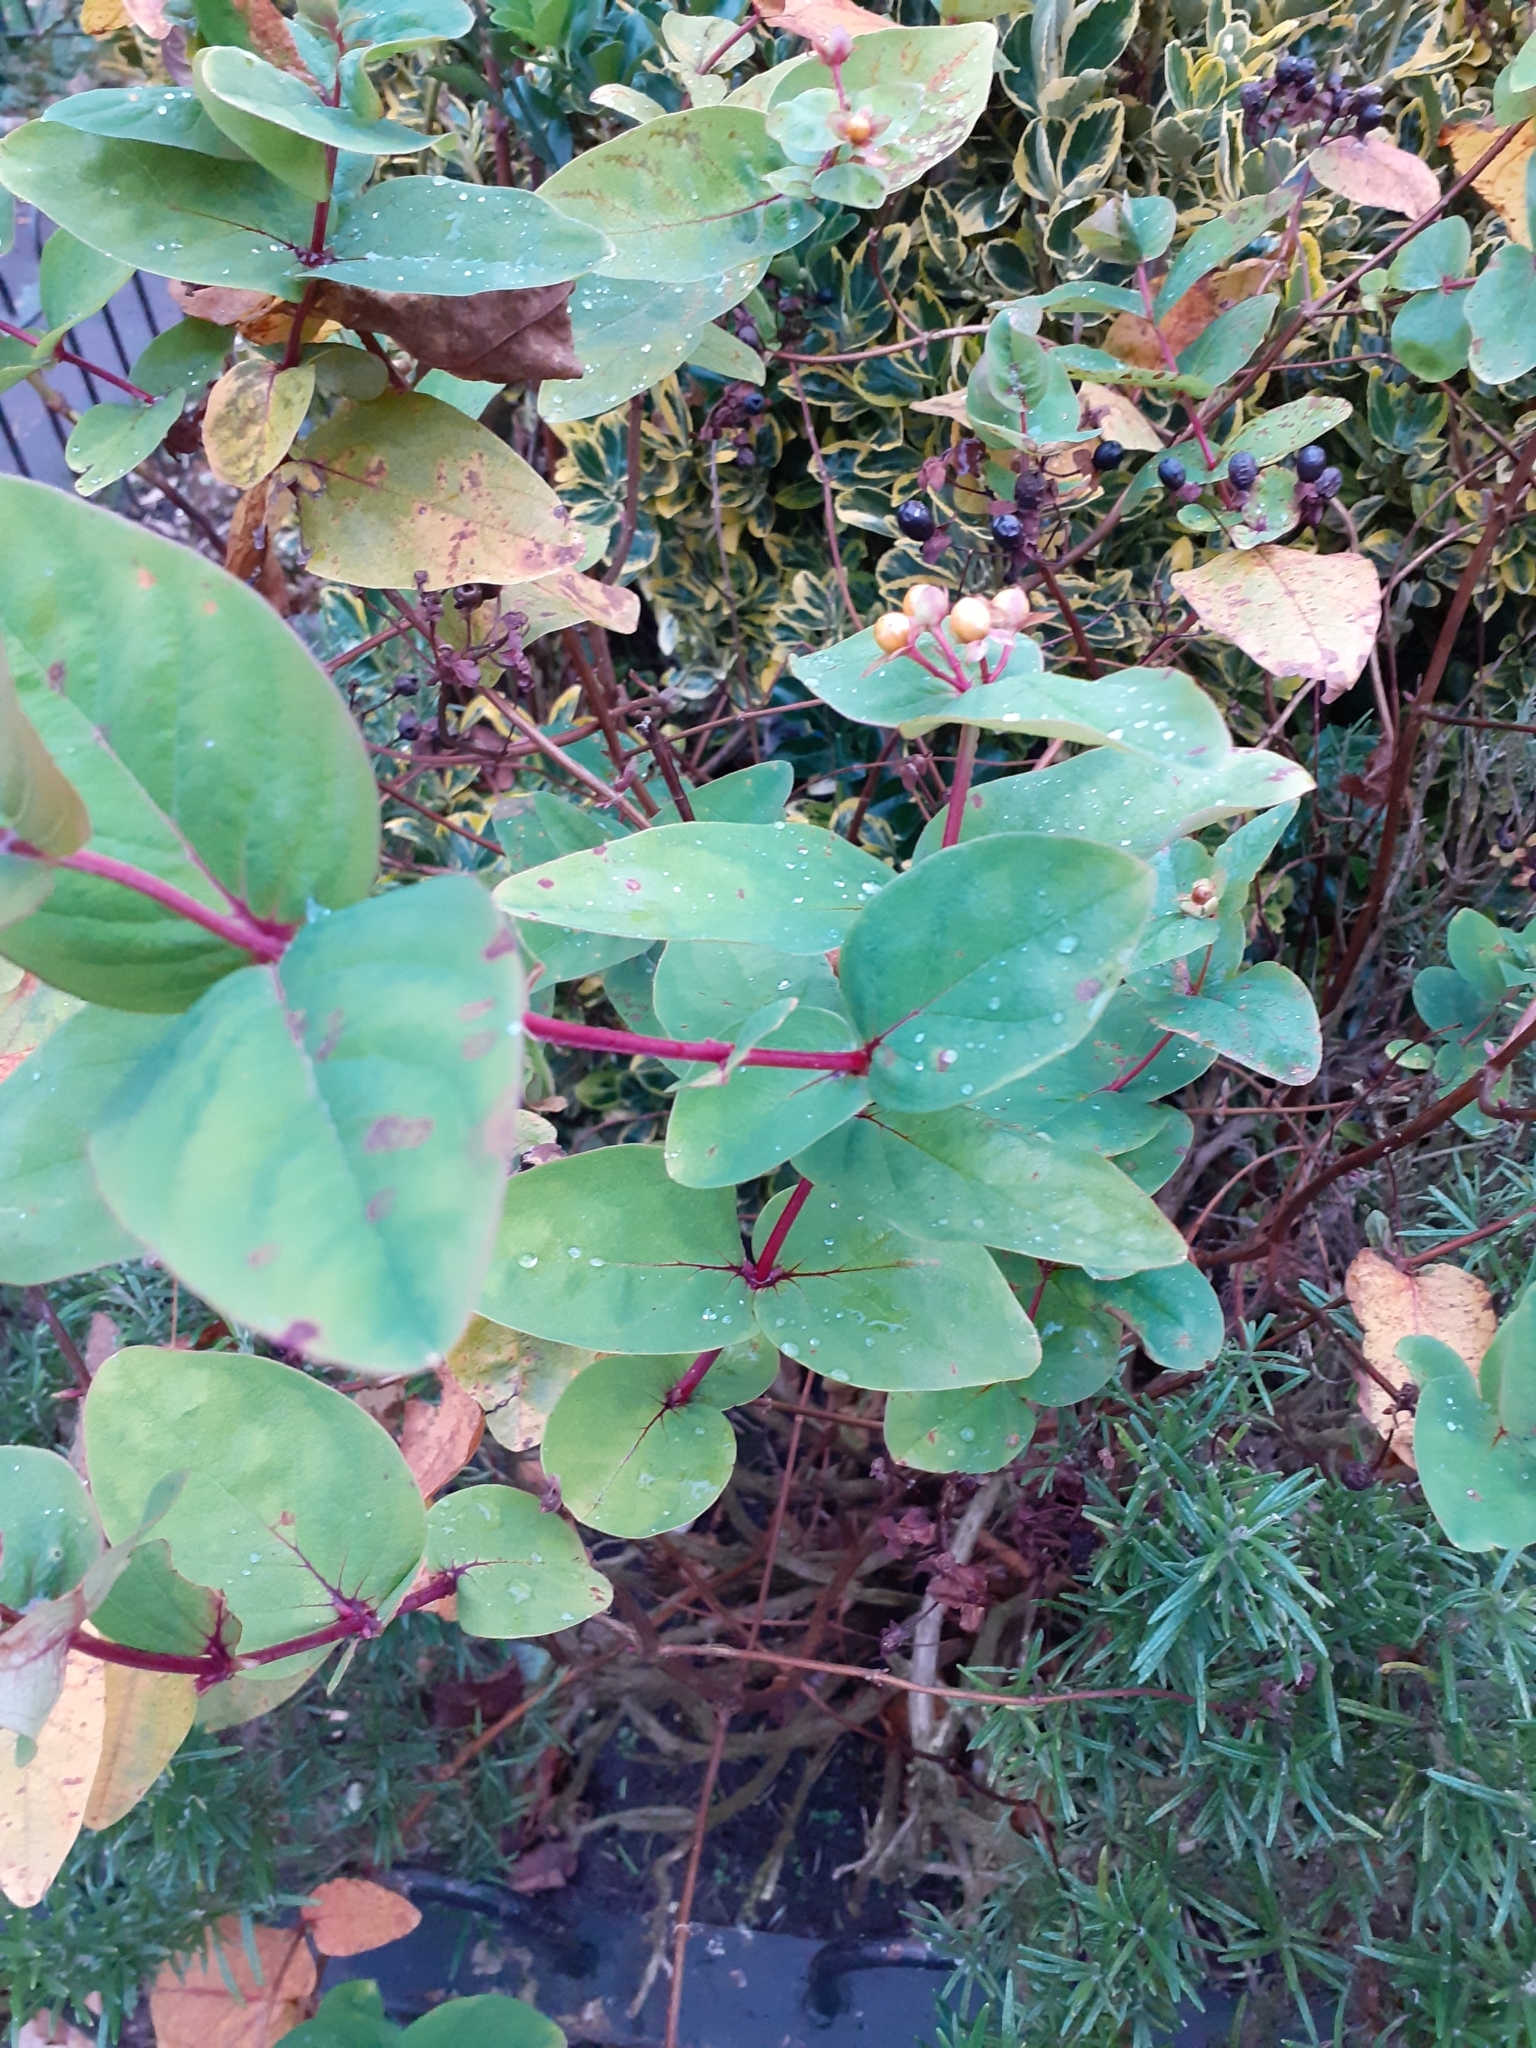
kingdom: Plantae
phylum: Tracheophyta
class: Magnoliopsida
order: Malpighiales
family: Hypericaceae
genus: Hypericum
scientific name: Hypericum androsaemum
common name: Sweet-amber
